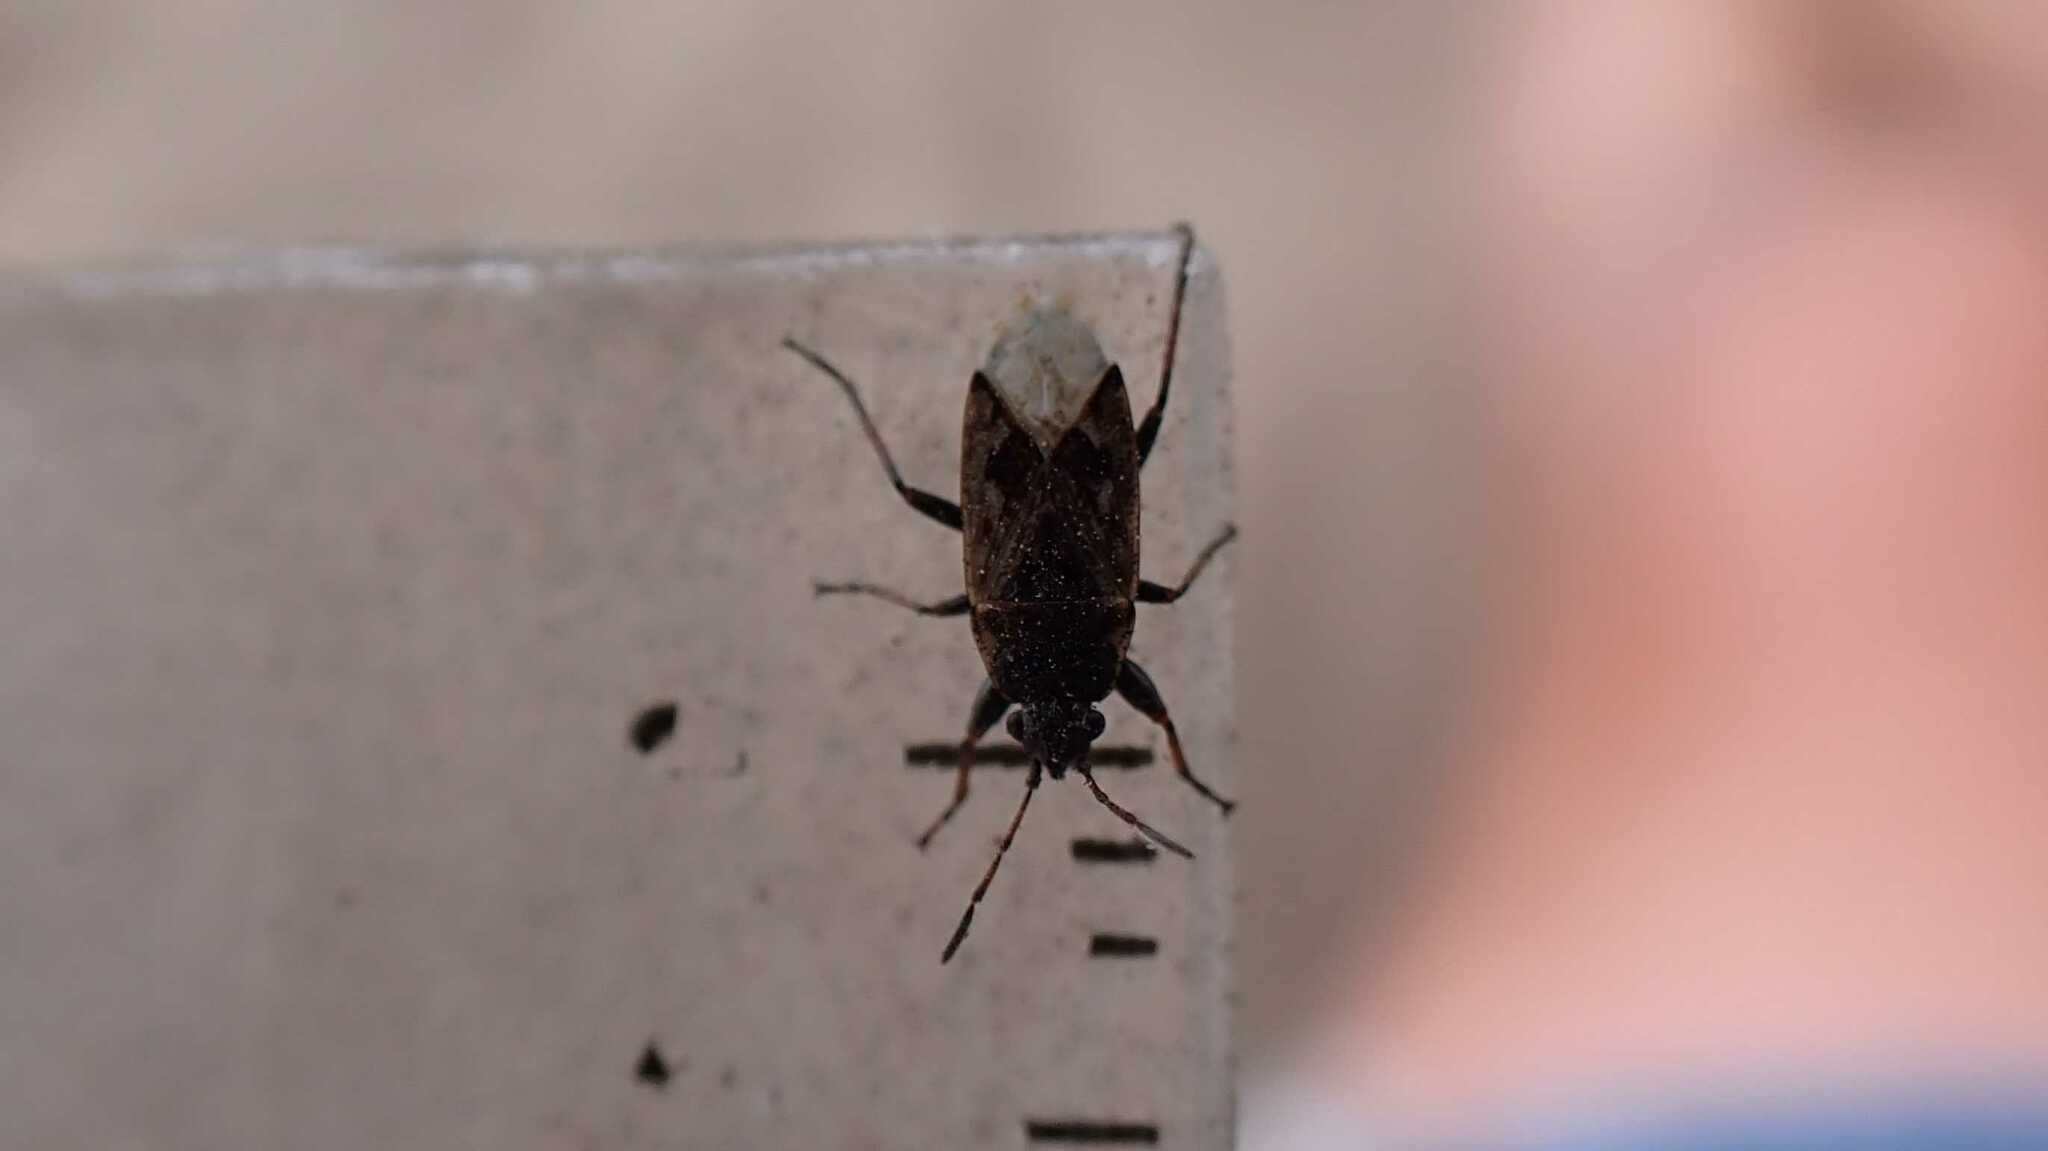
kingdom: Animalia
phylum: Arthropoda
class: Insecta
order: Hemiptera
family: Rhyparochromidae
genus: Sphragisticus
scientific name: Sphragisticus nebulosus
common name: Dirt-colored seed bug
